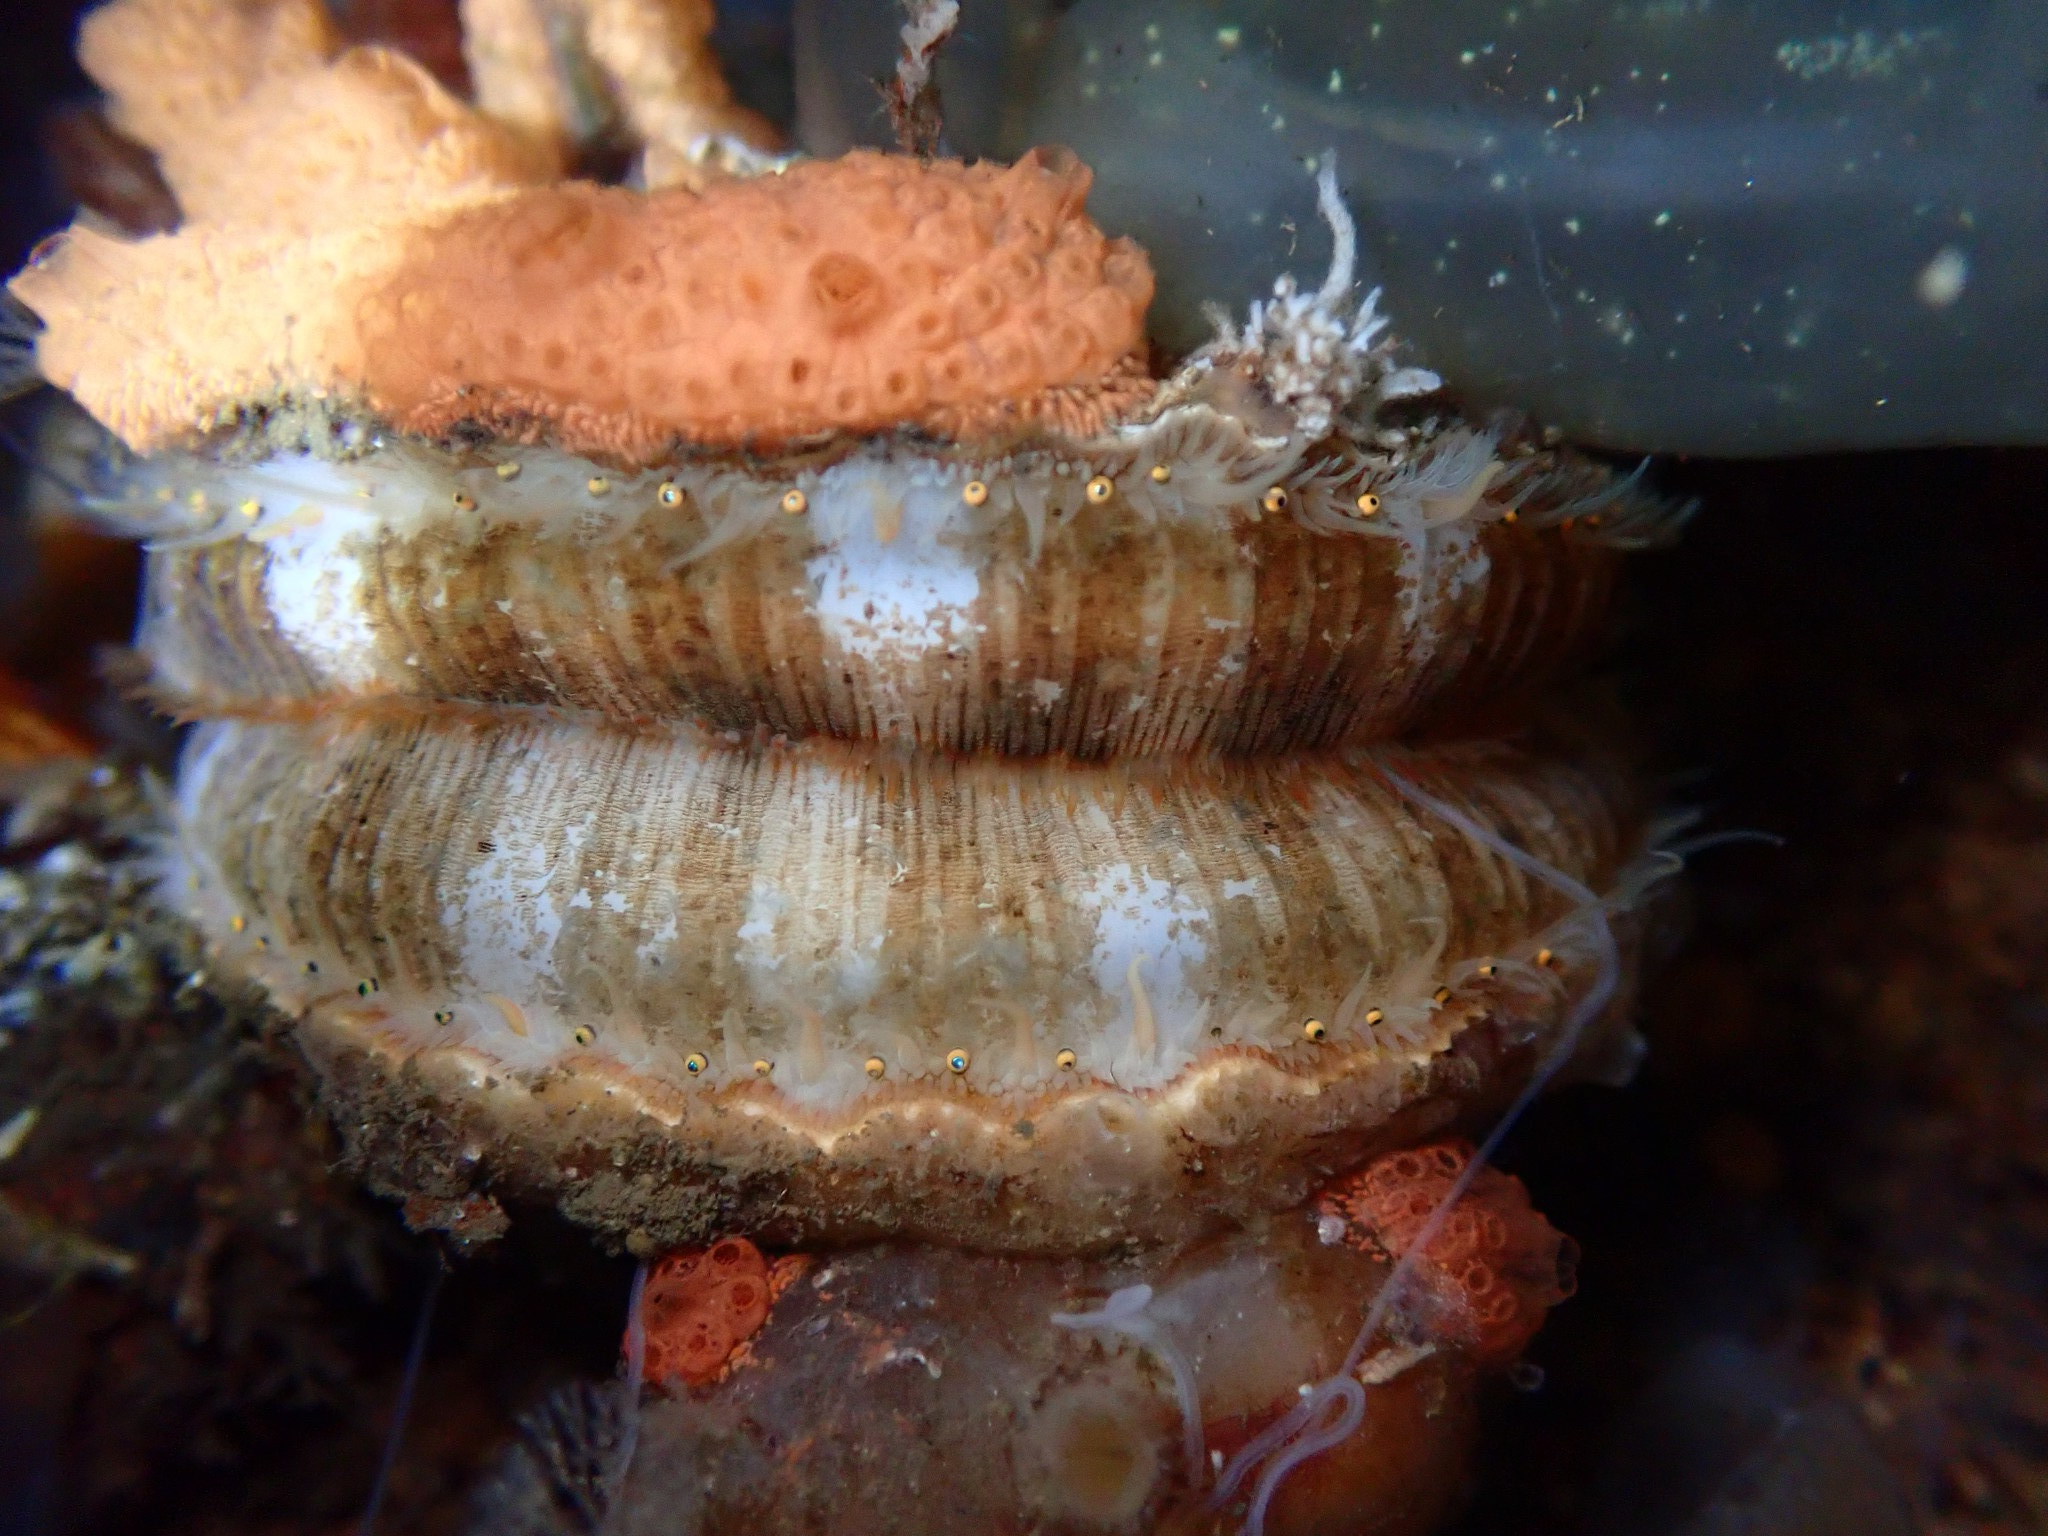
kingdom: Animalia
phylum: Mollusca
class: Bivalvia
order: Pectinida
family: Pectinidae
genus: Chlamys
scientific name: Chlamys hastata
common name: Spear scallop
